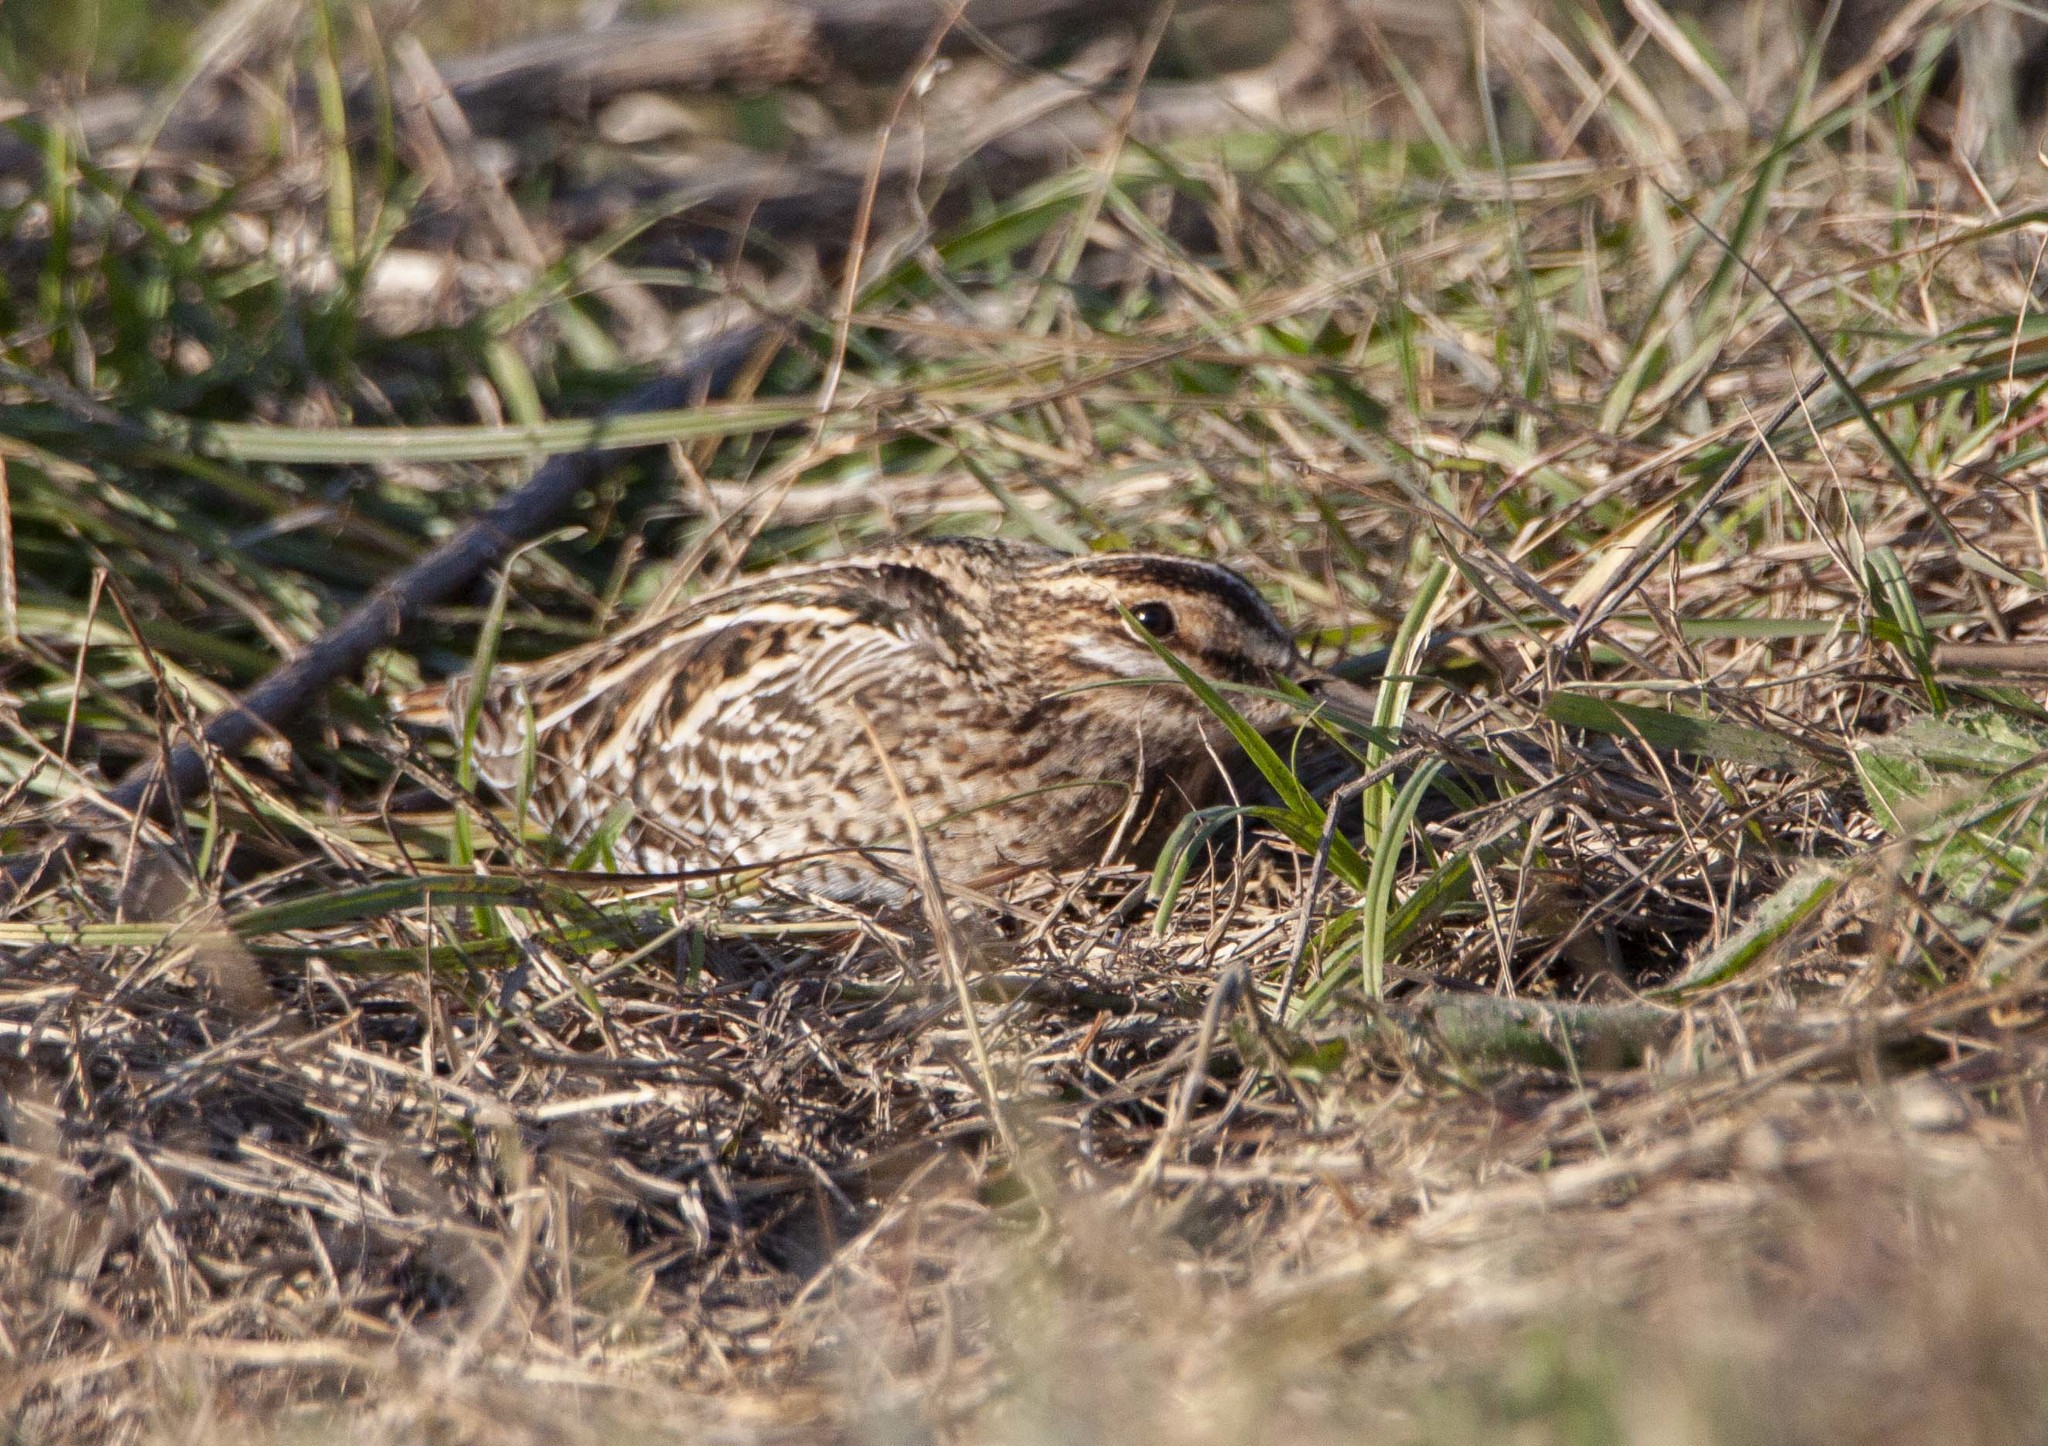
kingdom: Animalia
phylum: Chordata
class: Aves
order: Charadriiformes
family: Scolopacidae
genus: Gallinago
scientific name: Gallinago gallinago
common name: Common snipe
